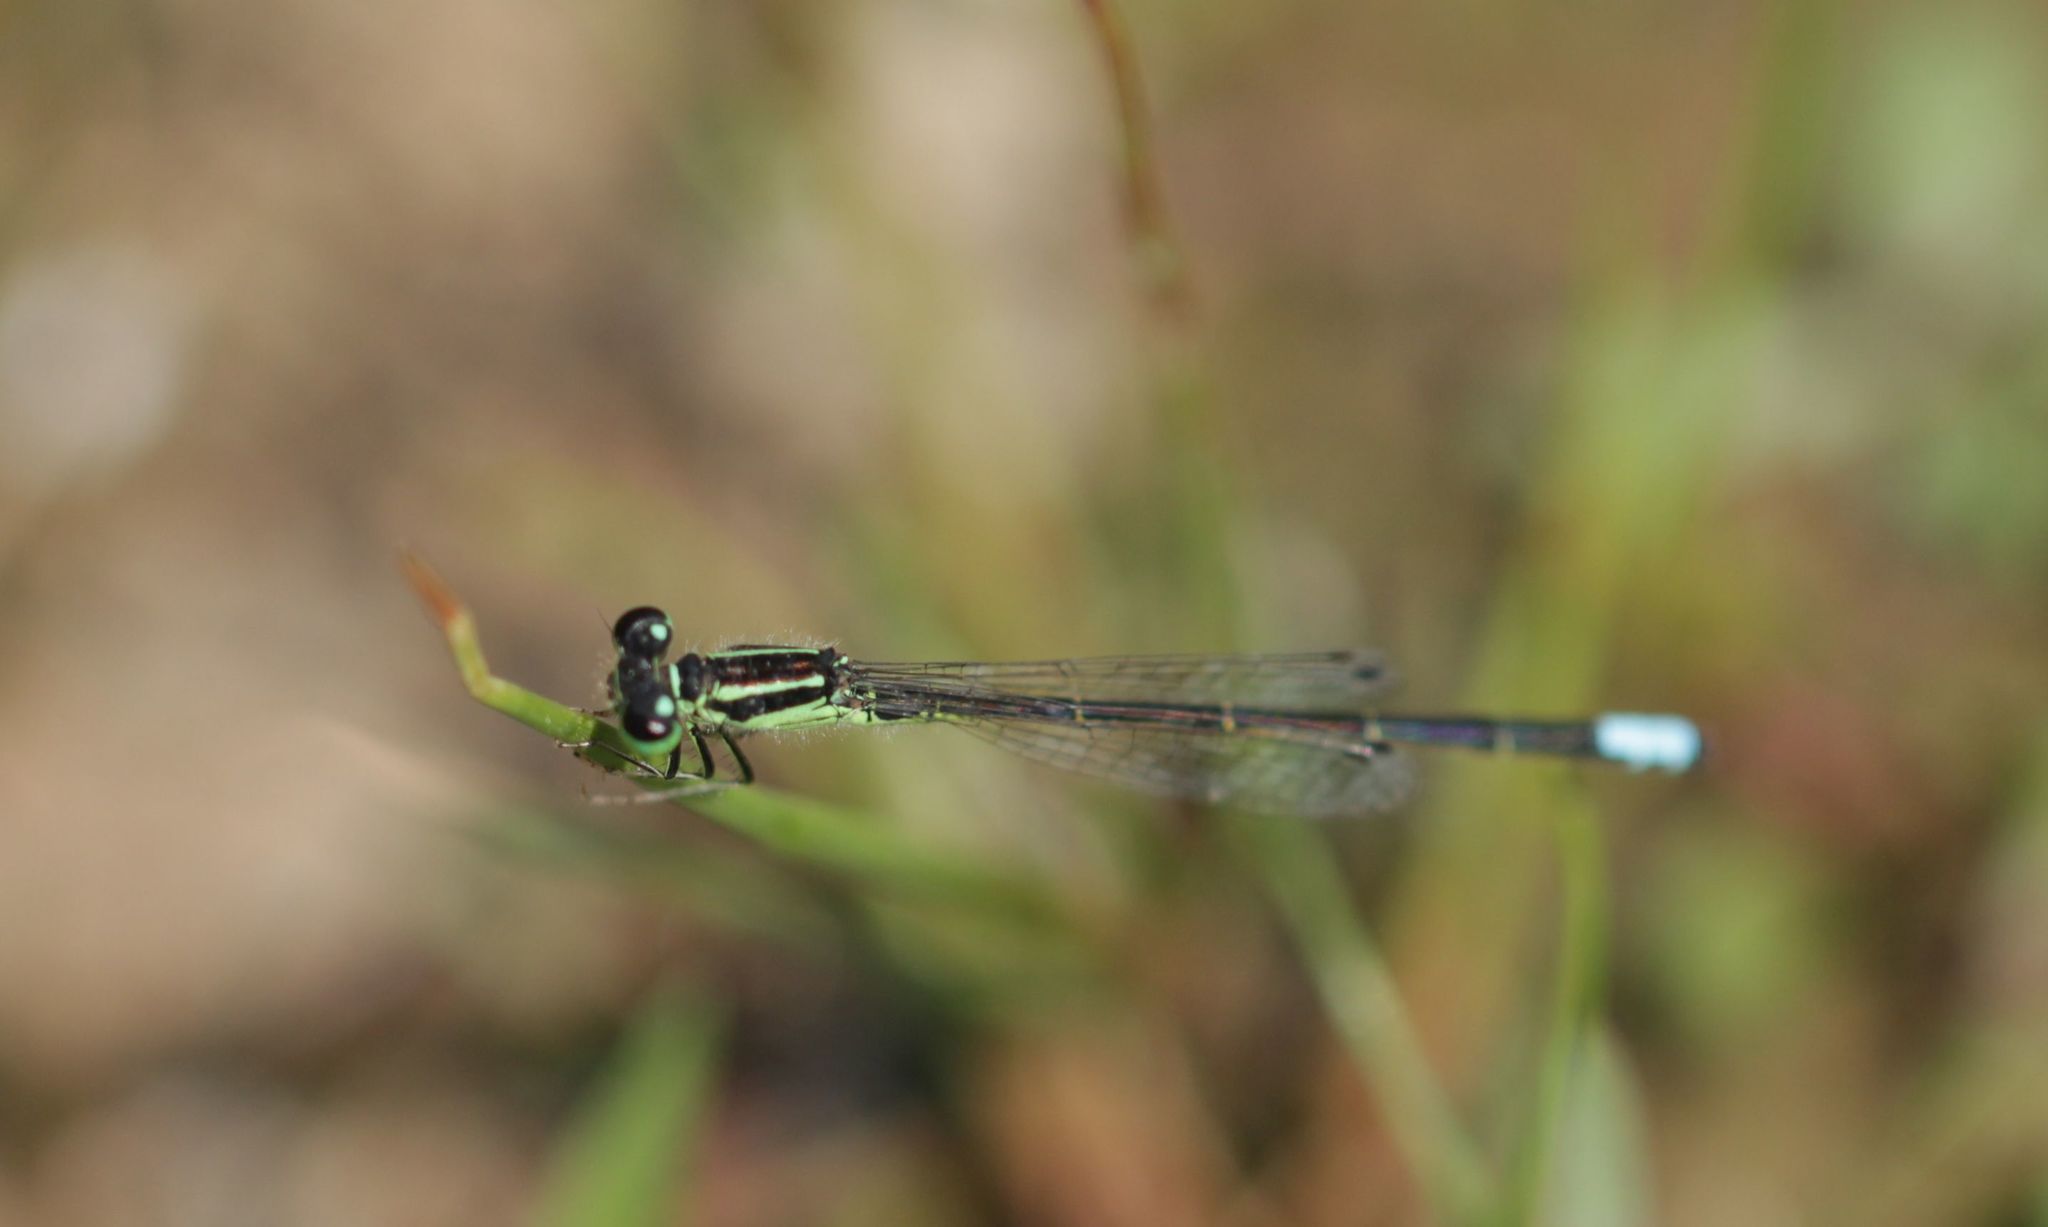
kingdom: Animalia
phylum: Arthropoda
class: Insecta
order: Odonata
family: Coenagrionidae
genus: Ischnura
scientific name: Ischnura verticalis
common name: Eastern forktail
